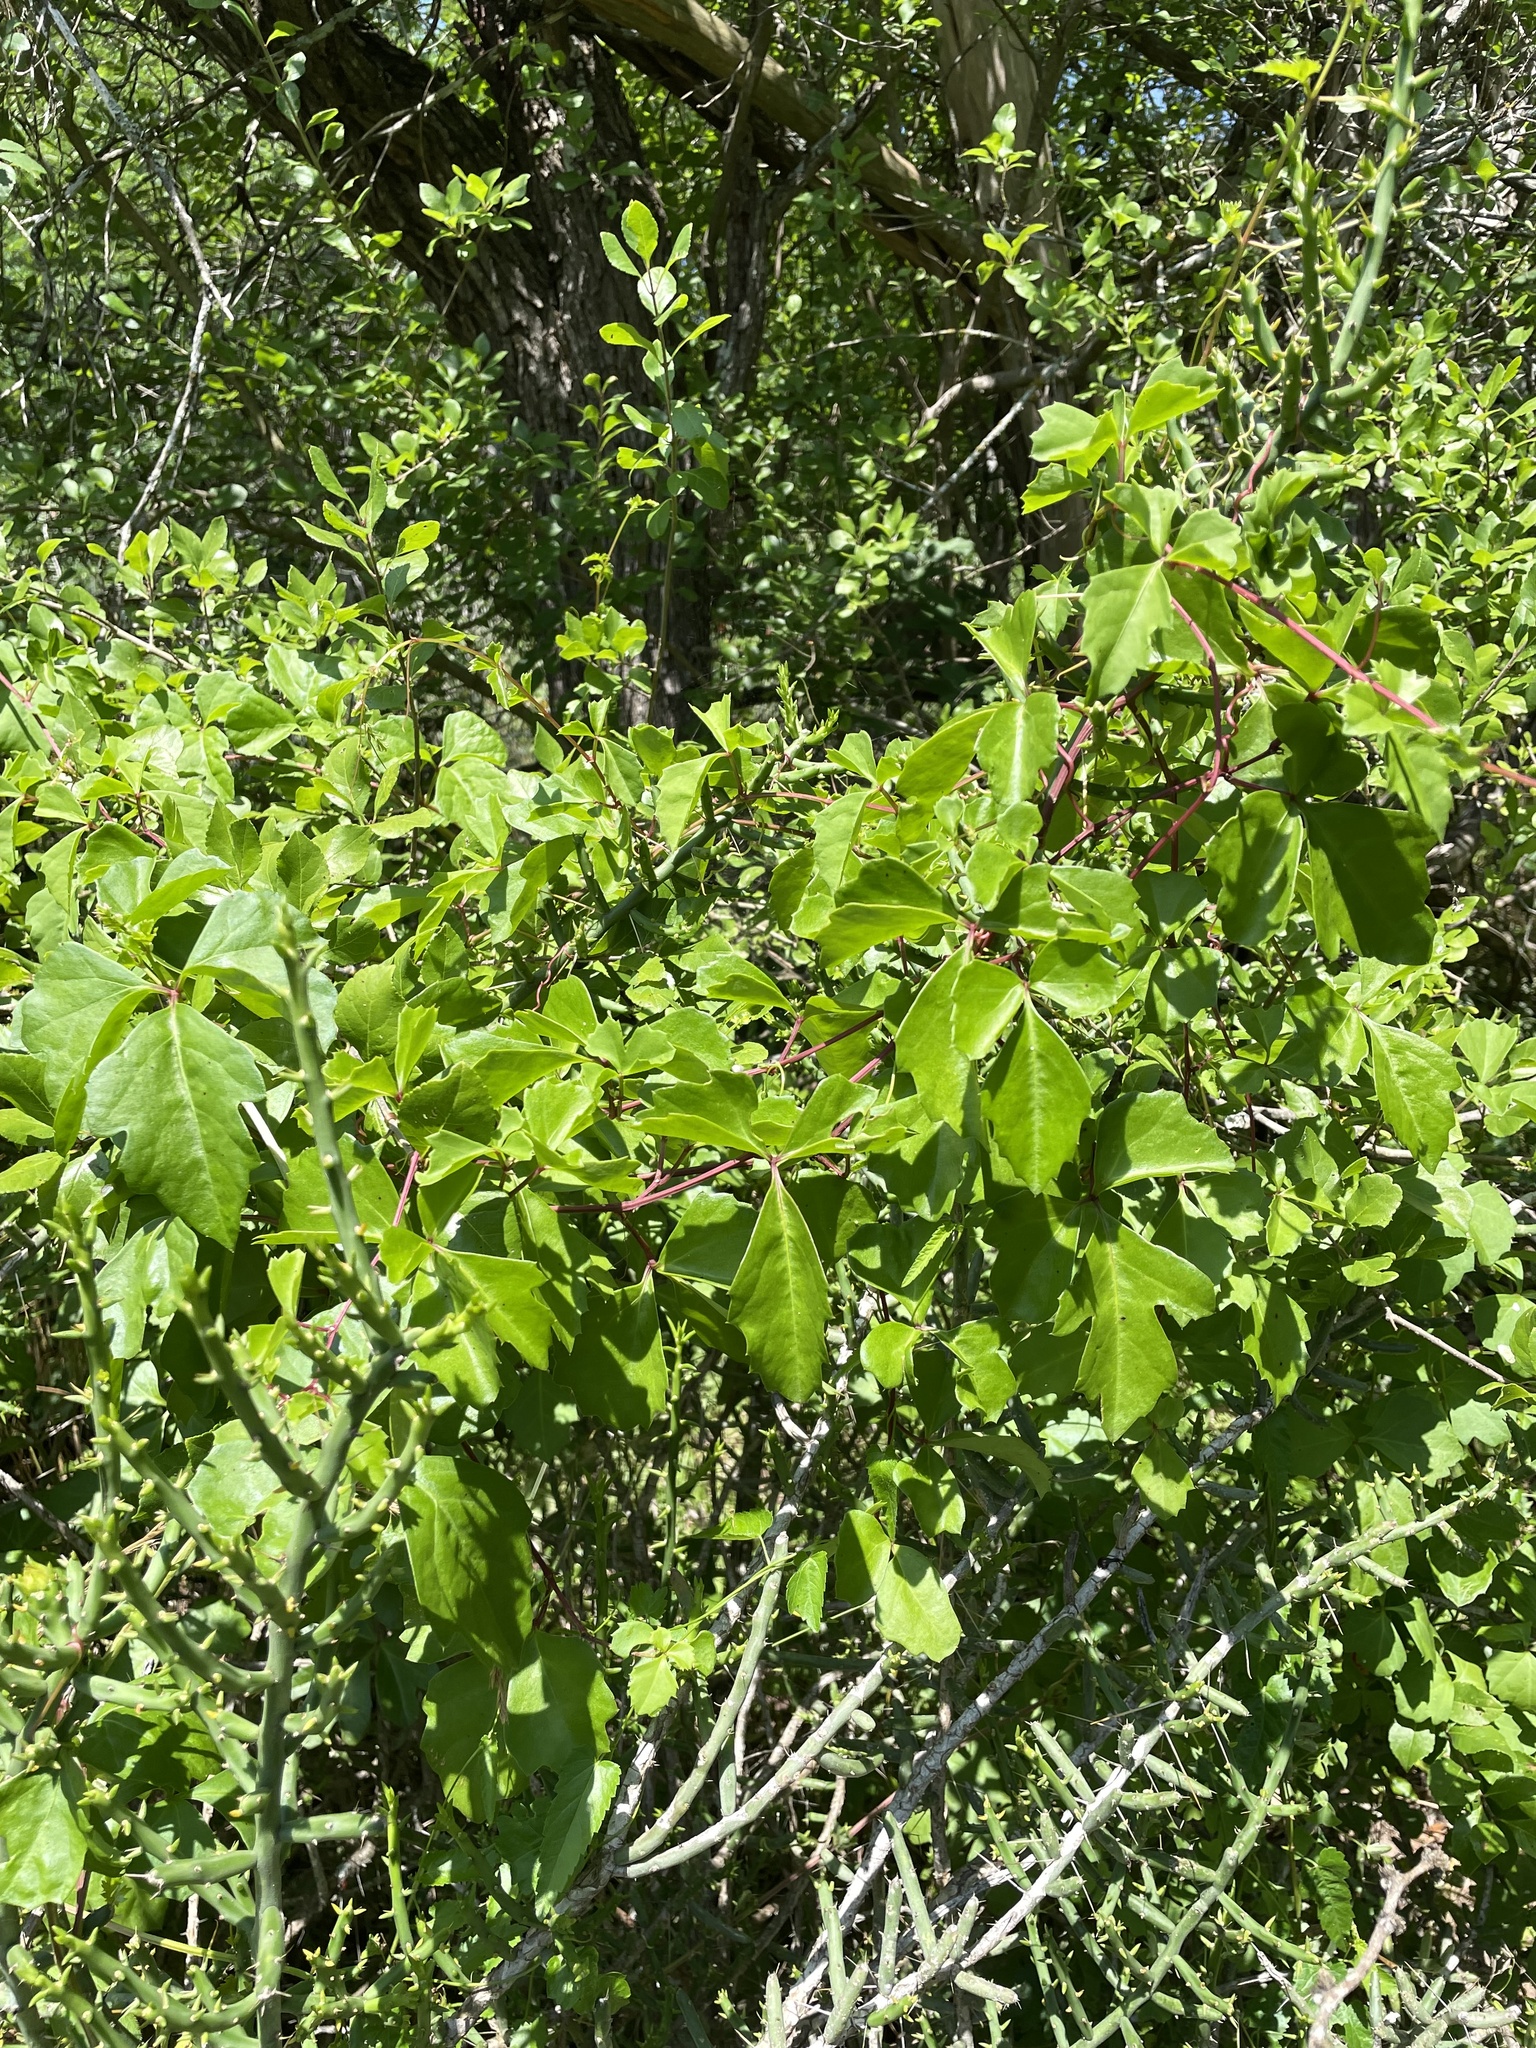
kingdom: Plantae
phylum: Tracheophyta
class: Magnoliopsida
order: Vitales
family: Vitaceae
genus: Cissus
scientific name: Cissus trifoliata
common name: Vine-sorrel
